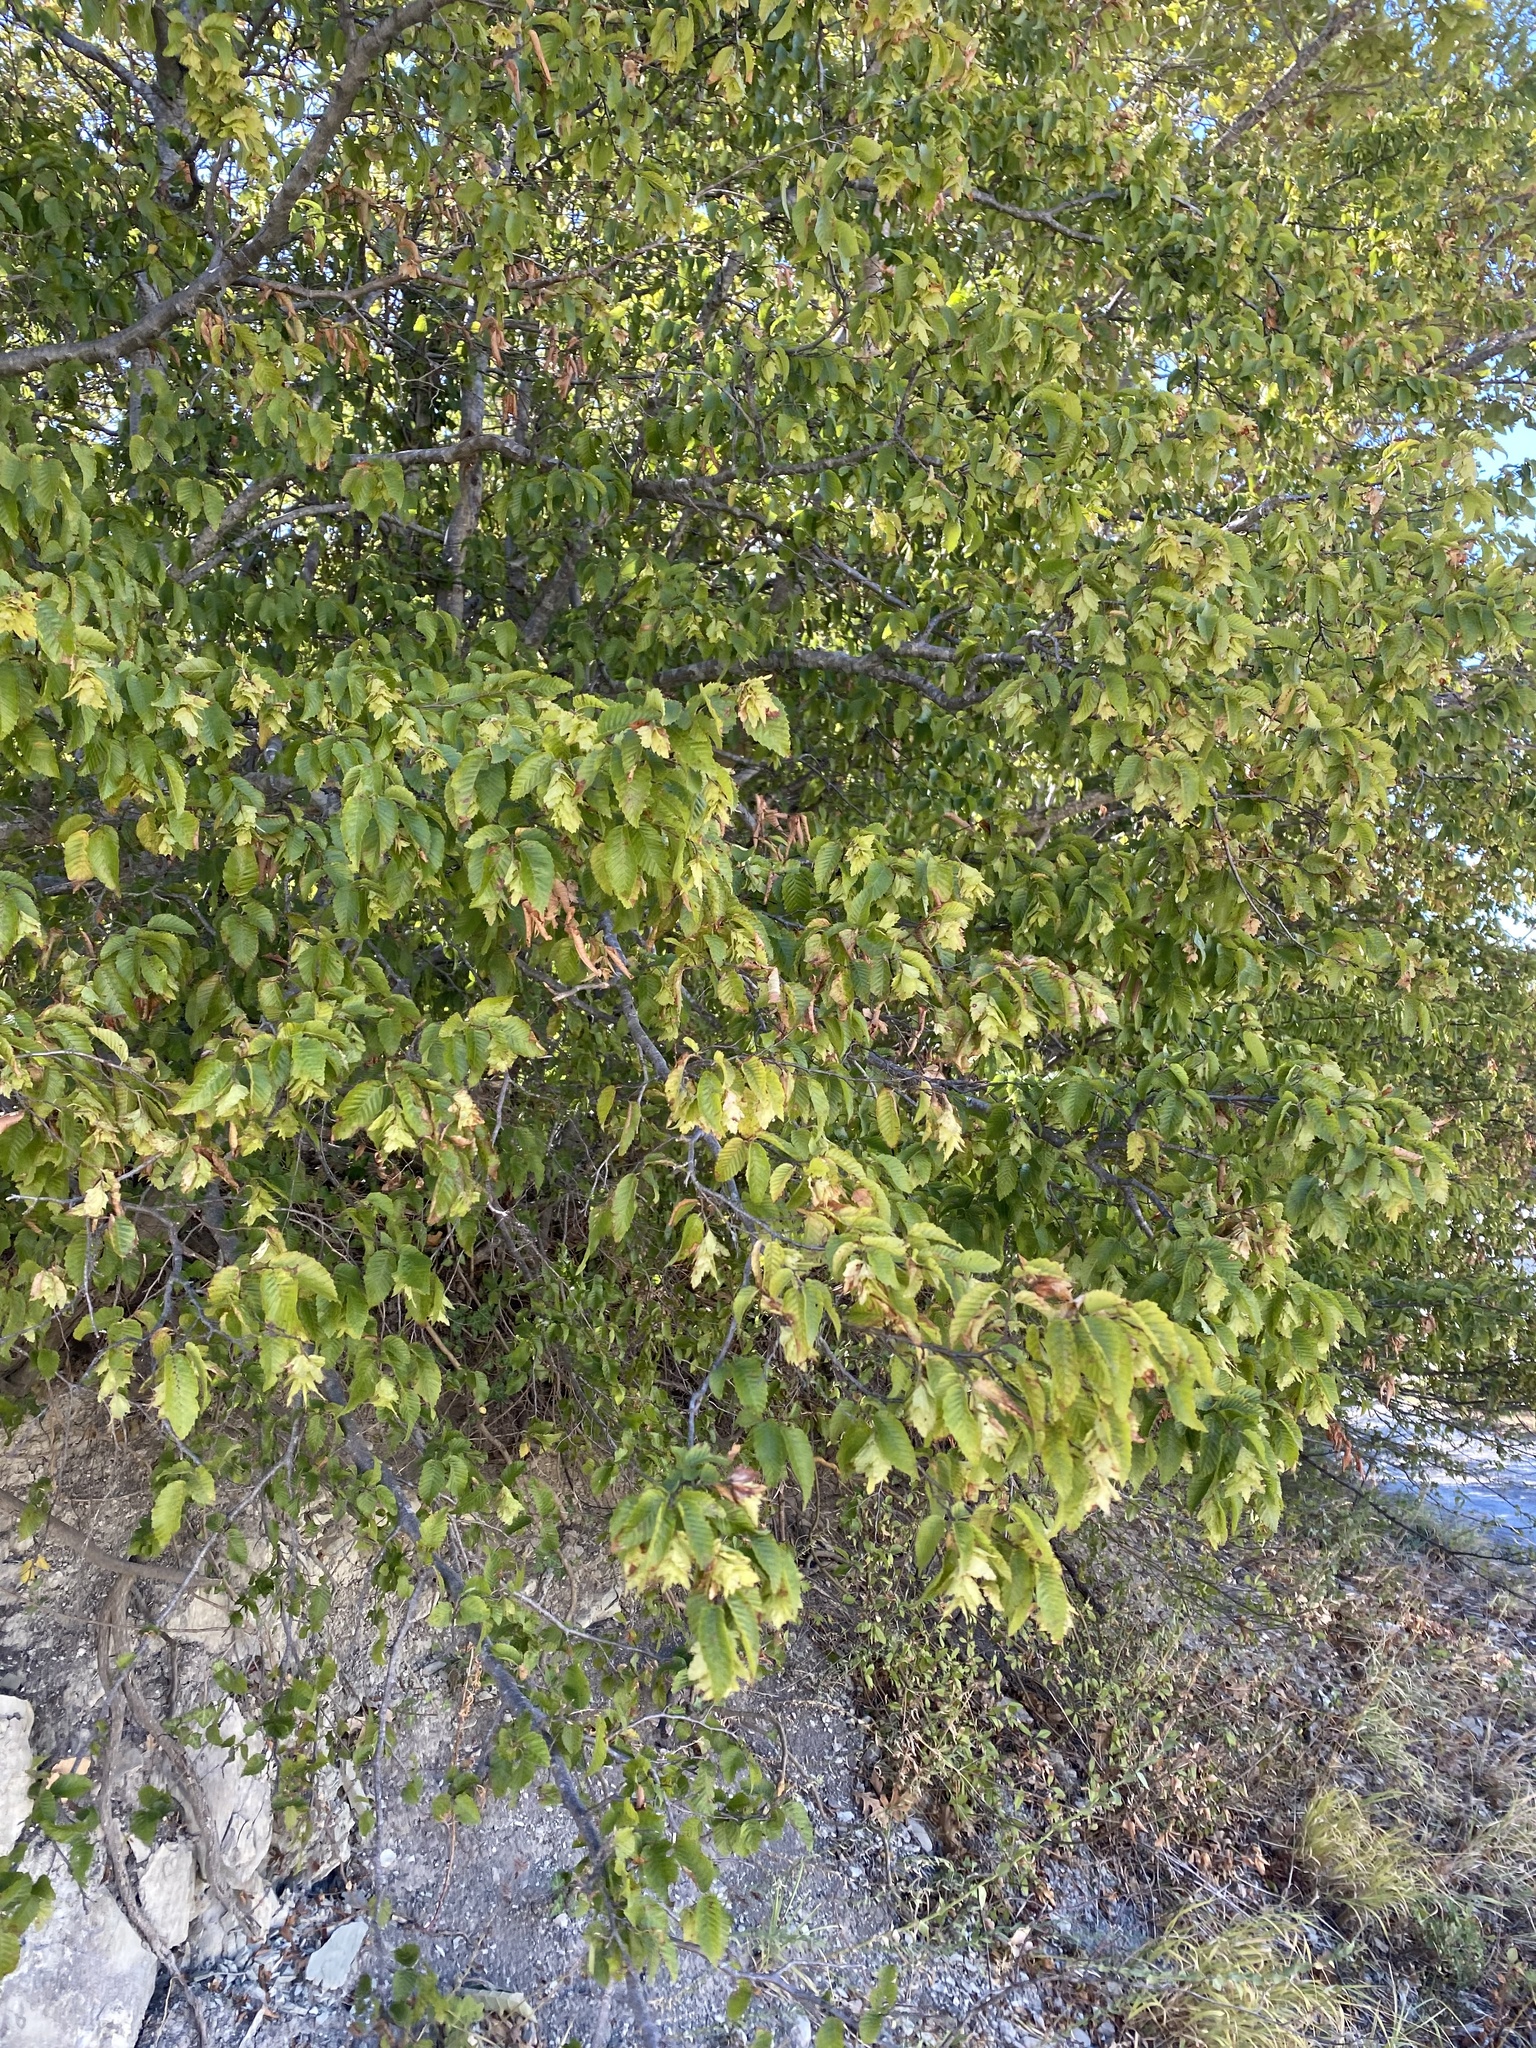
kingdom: Plantae
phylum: Tracheophyta
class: Magnoliopsida
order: Fagales
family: Betulaceae
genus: Carpinus
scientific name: Carpinus orientalis
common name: Eastern hornbeam
